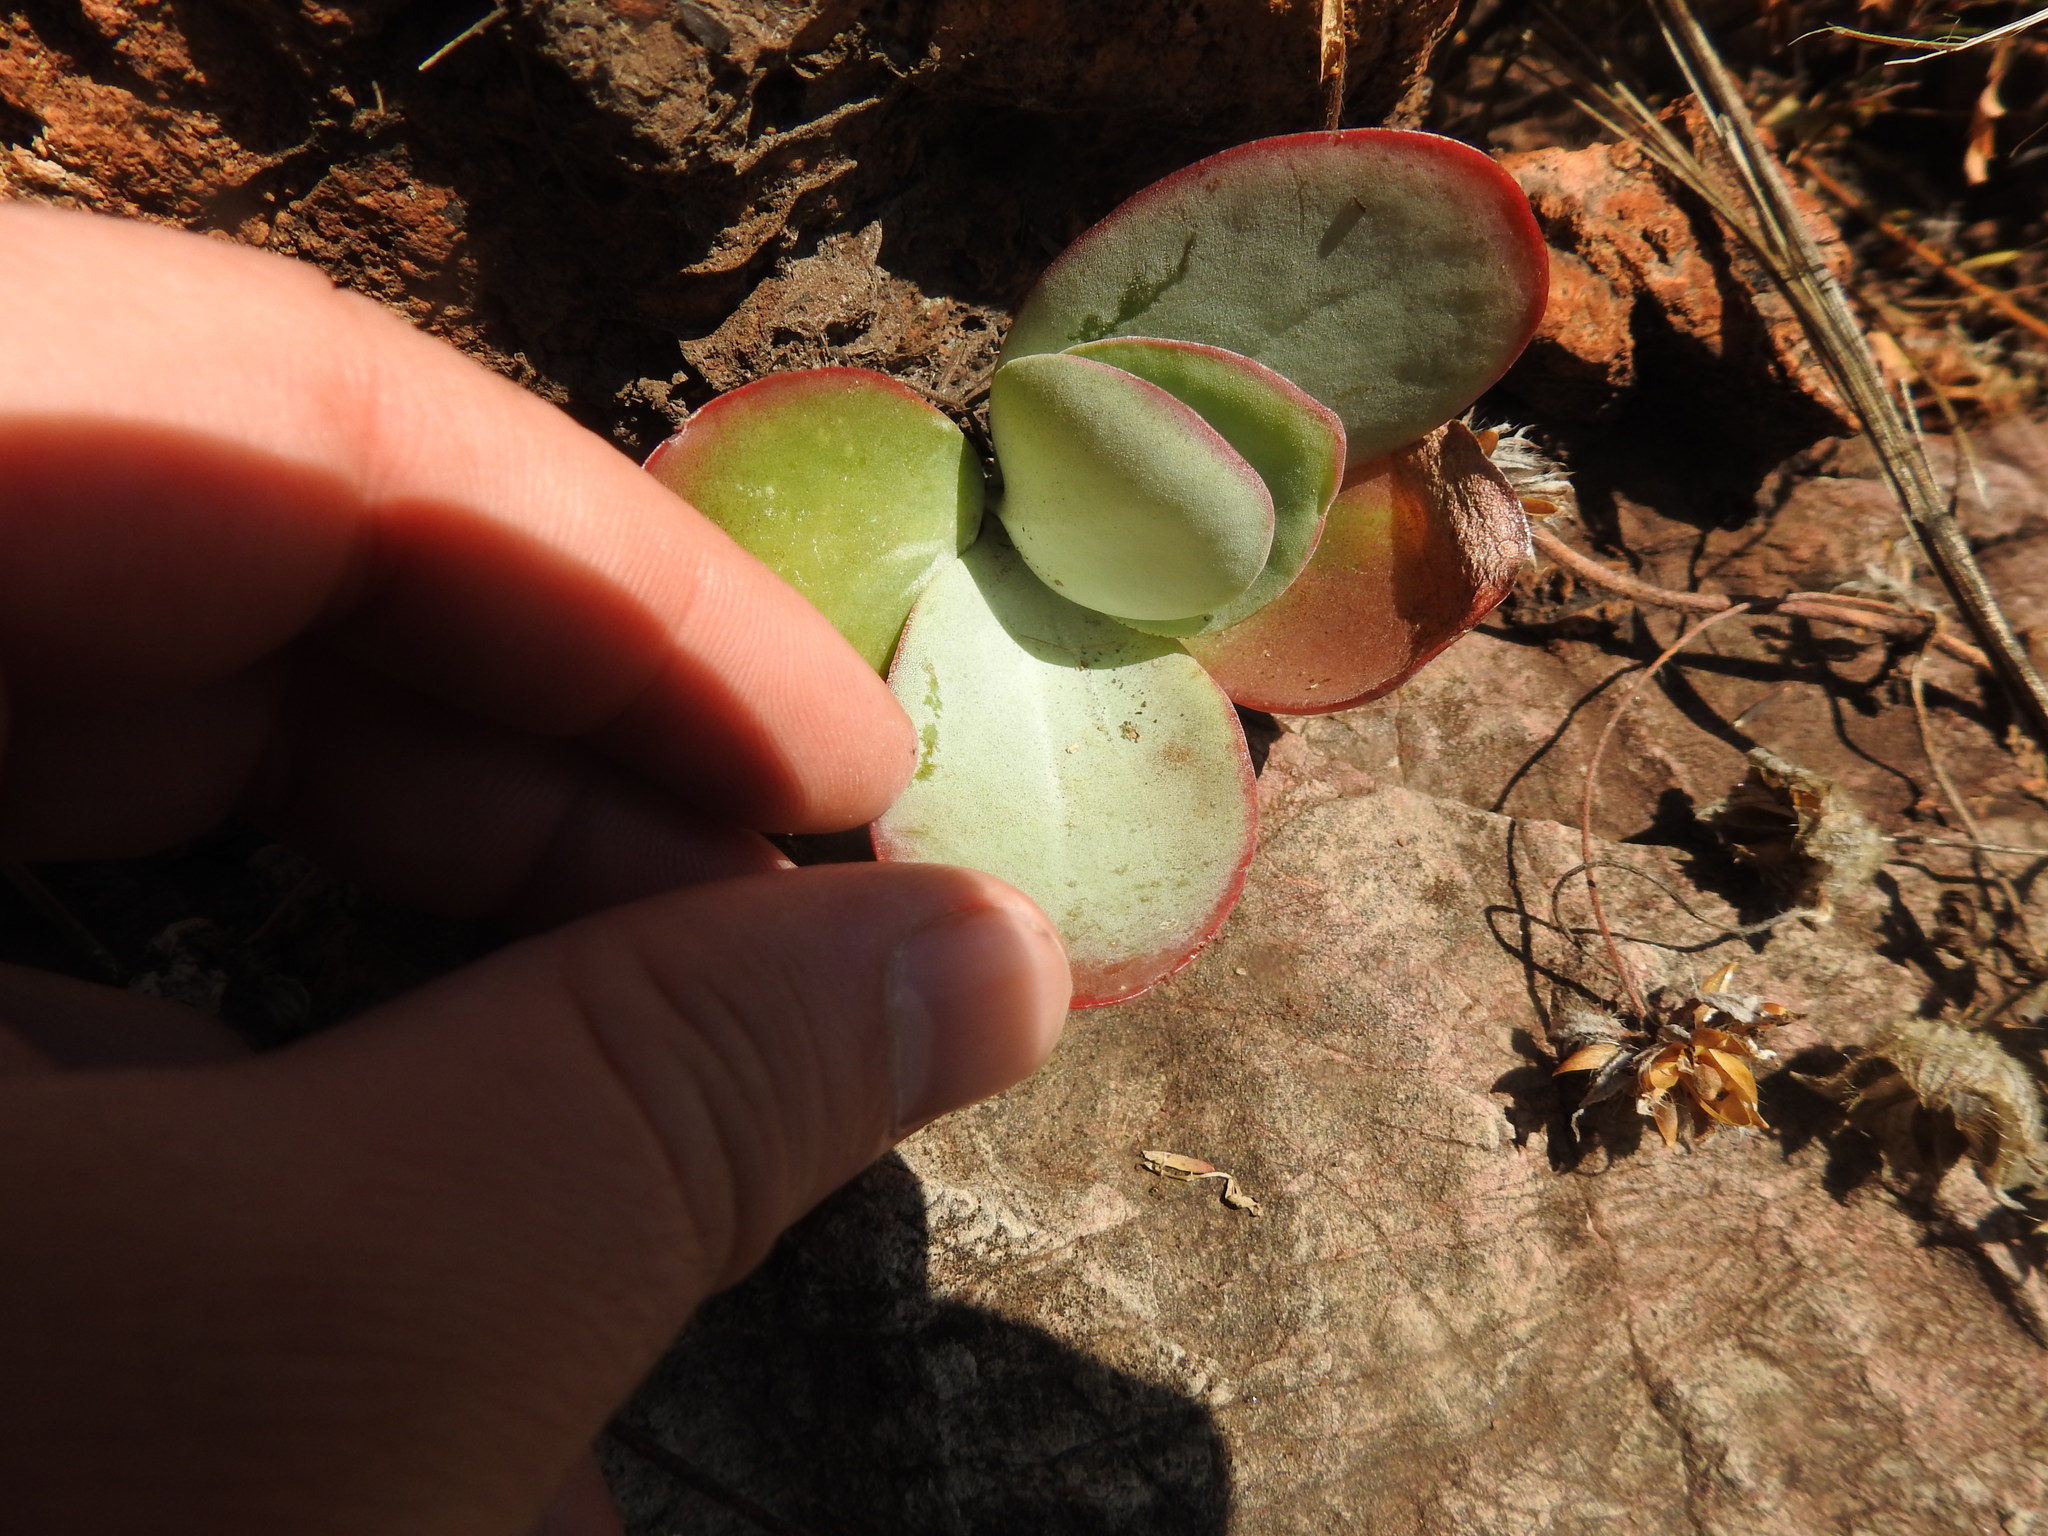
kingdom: Plantae
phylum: Tracheophyta
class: Magnoliopsida
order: Saxifragales
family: Crassulaceae
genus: Kalanchoe
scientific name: Kalanchoe thyrsiflora
